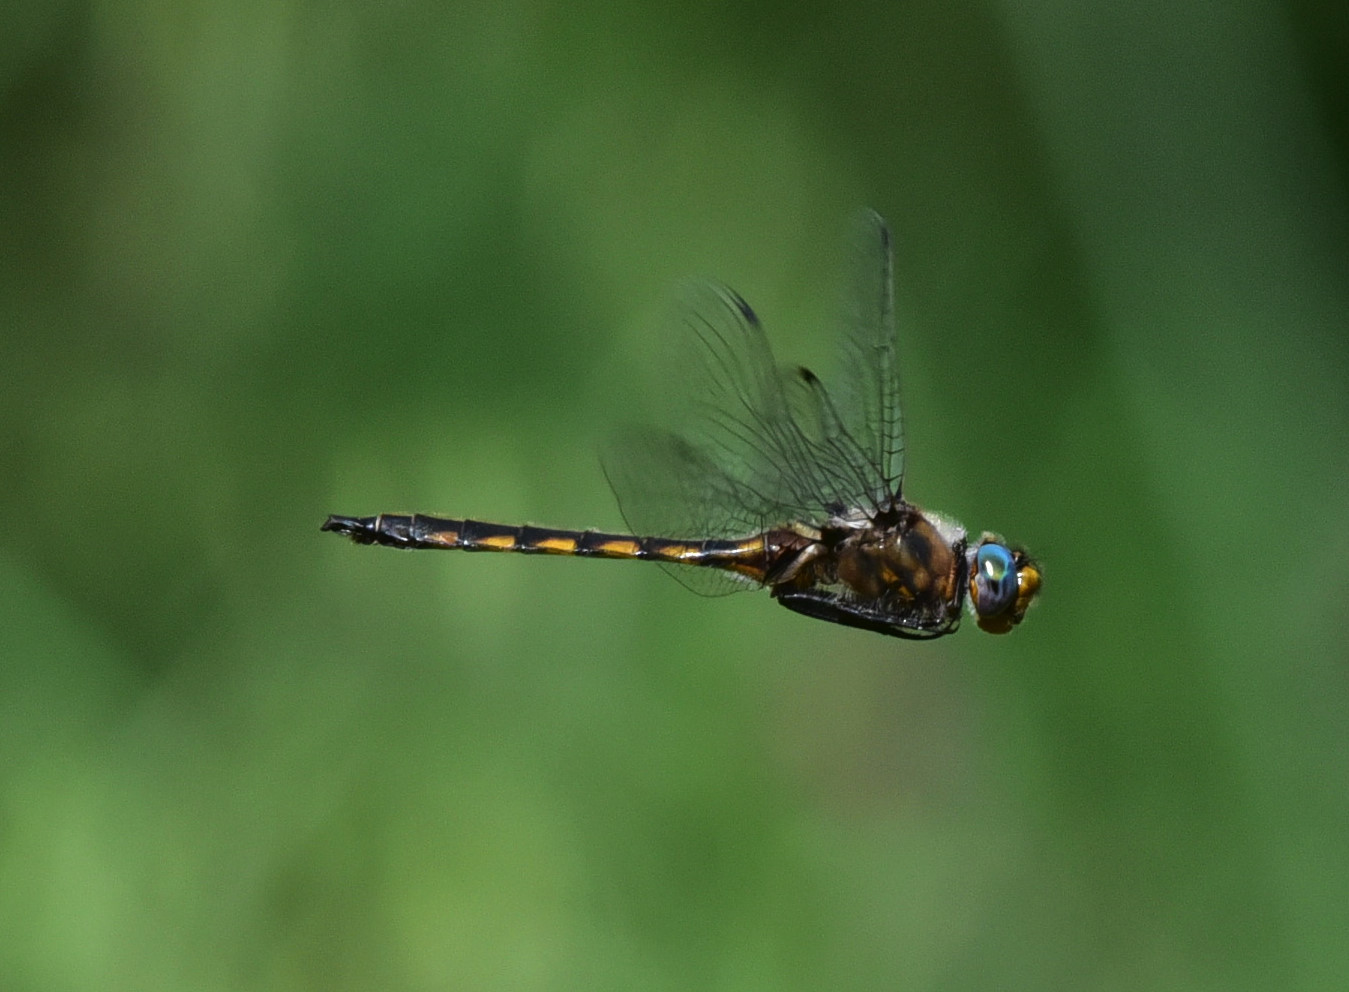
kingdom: Animalia
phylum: Arthropoda
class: Insecta
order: Odonata
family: Corduliidae
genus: Epitheca
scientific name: Epitheca canis
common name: Beaverpond baskettail
